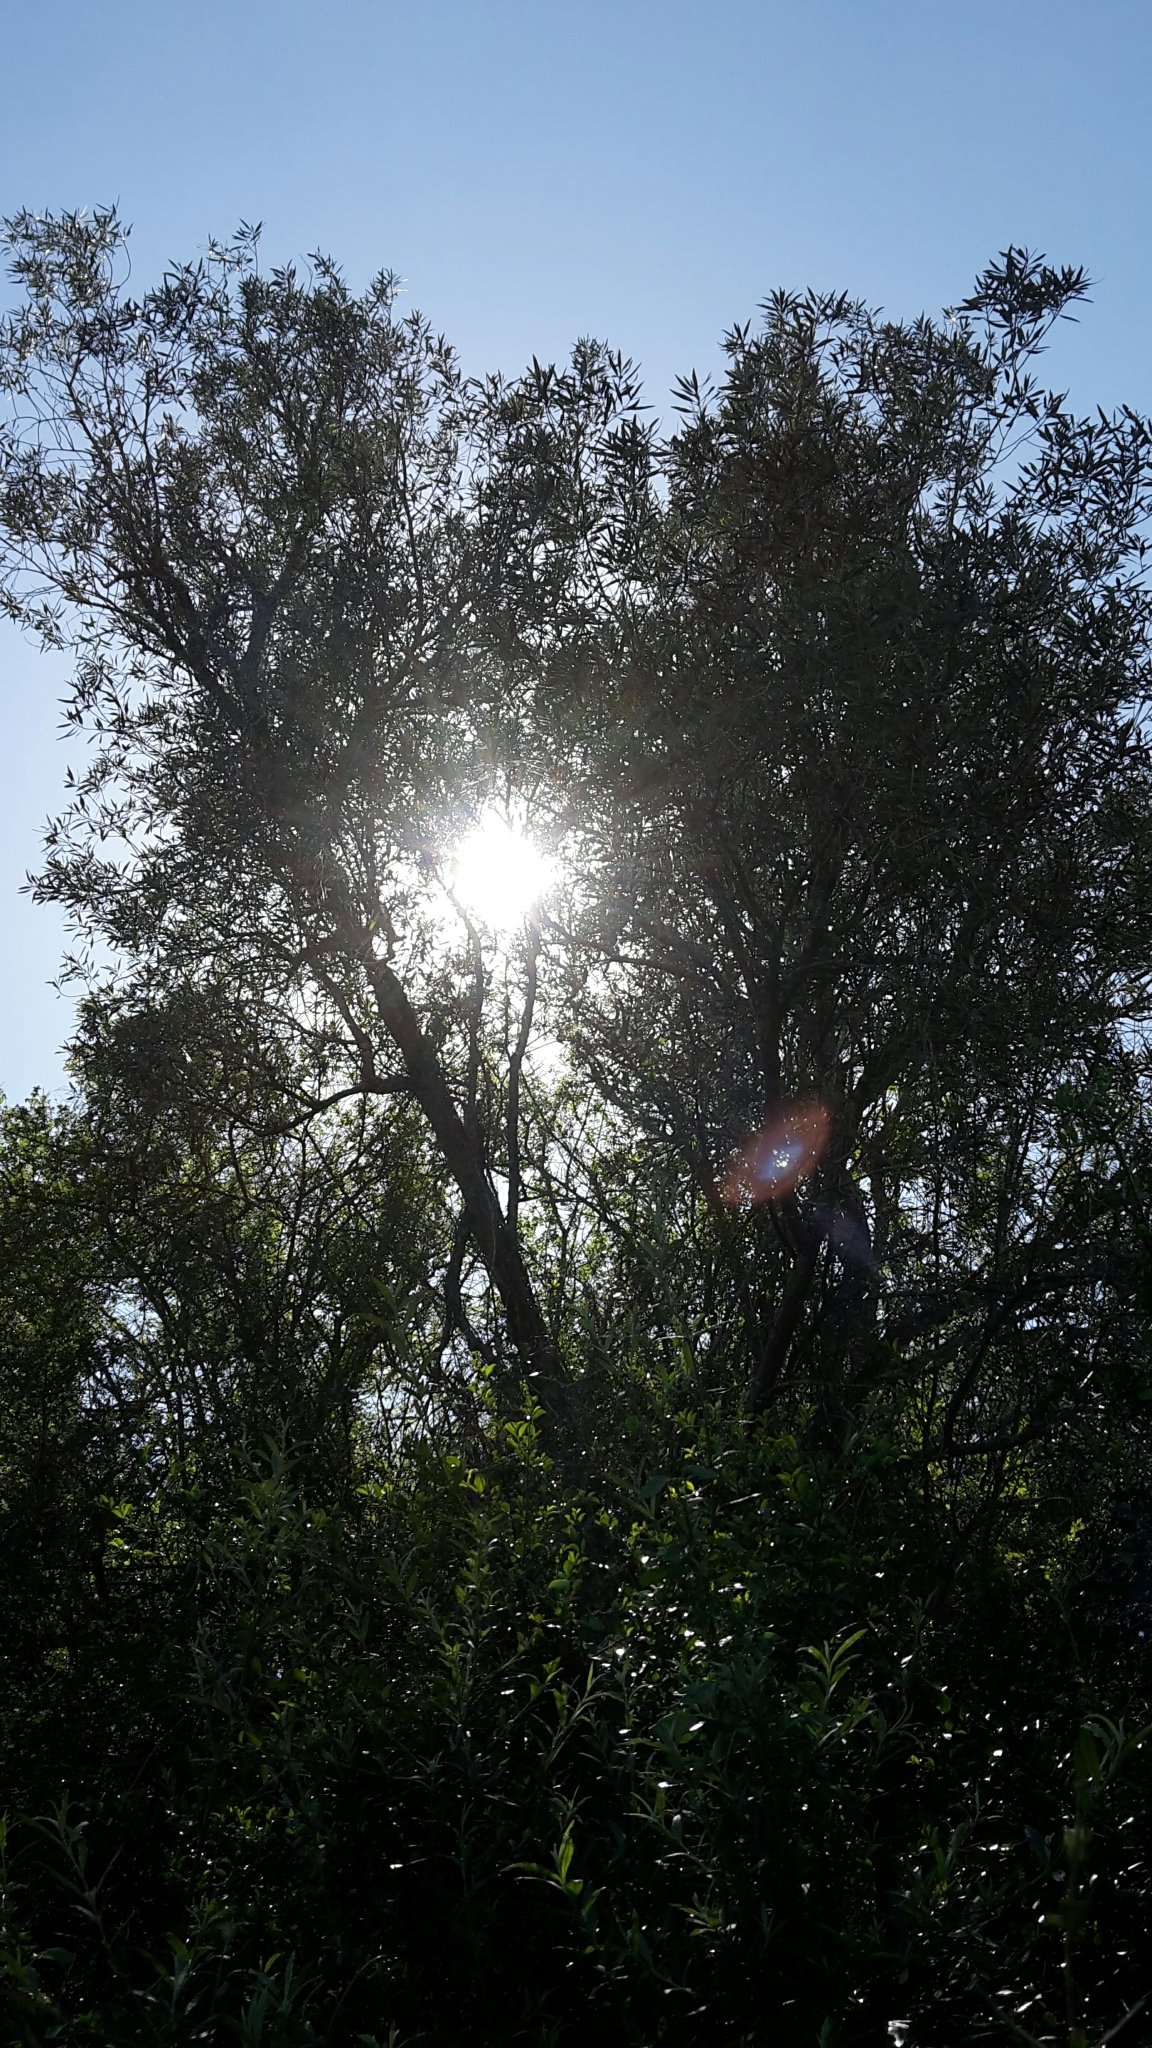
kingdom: Plantae
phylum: Tracheophyta
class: Magnoliopsida
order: Lamiales
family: Scrophulariaceae
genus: Buddleja
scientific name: Buddleja saligna
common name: False olive
